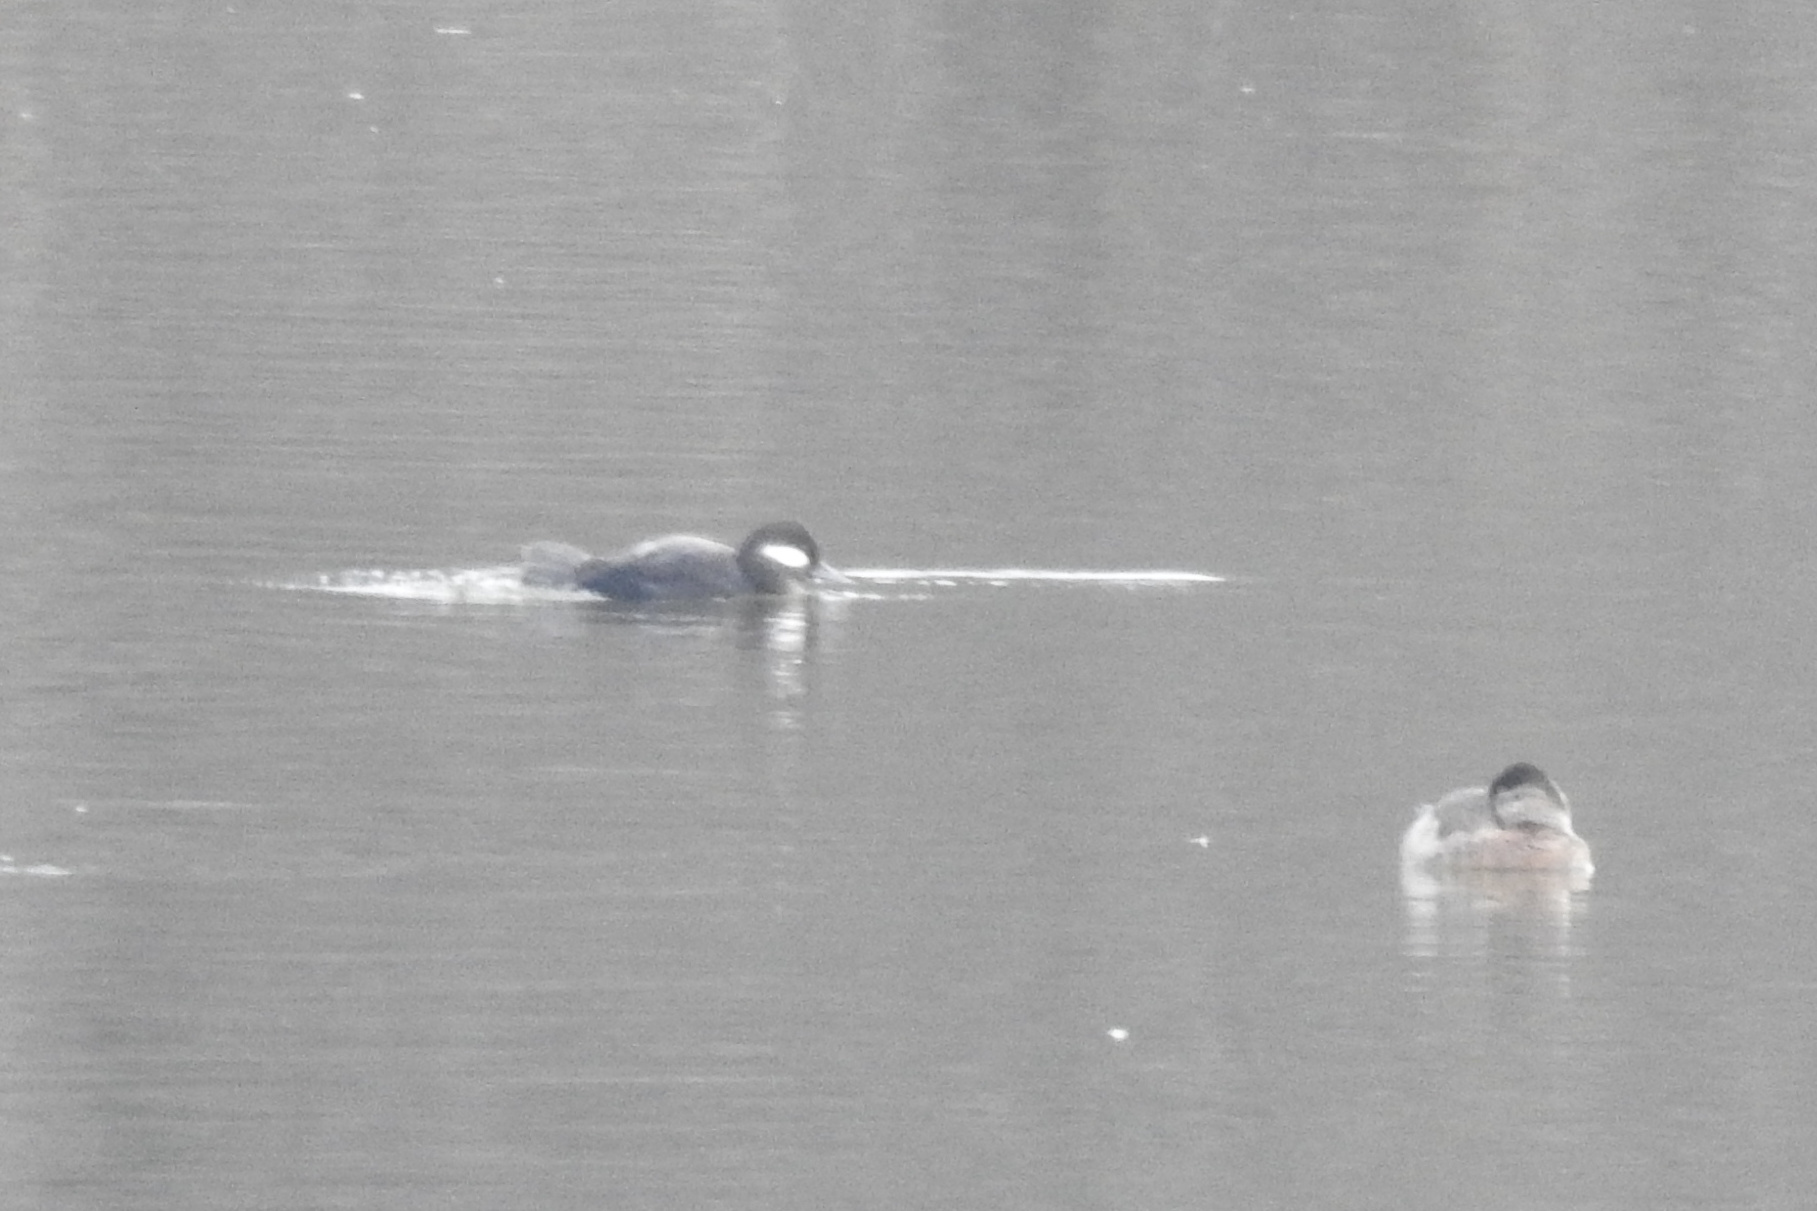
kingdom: Animalia
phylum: Chordata
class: Aves
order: Anseriformes
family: Anatidae
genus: Bucephala
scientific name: Bucephala albeola
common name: Bufflehead
